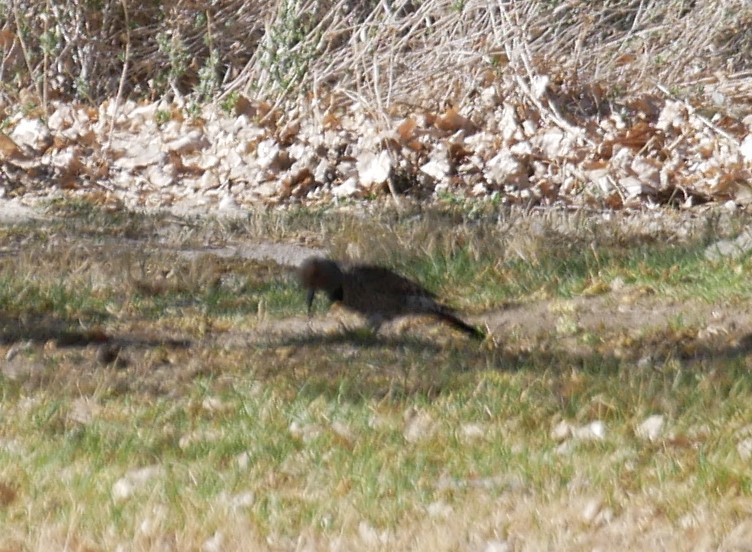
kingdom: Animalia
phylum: Chordata
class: Aves
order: Piciformes
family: Picidae
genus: Colaptes
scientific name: Colaptes auratus
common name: Northern flicker
